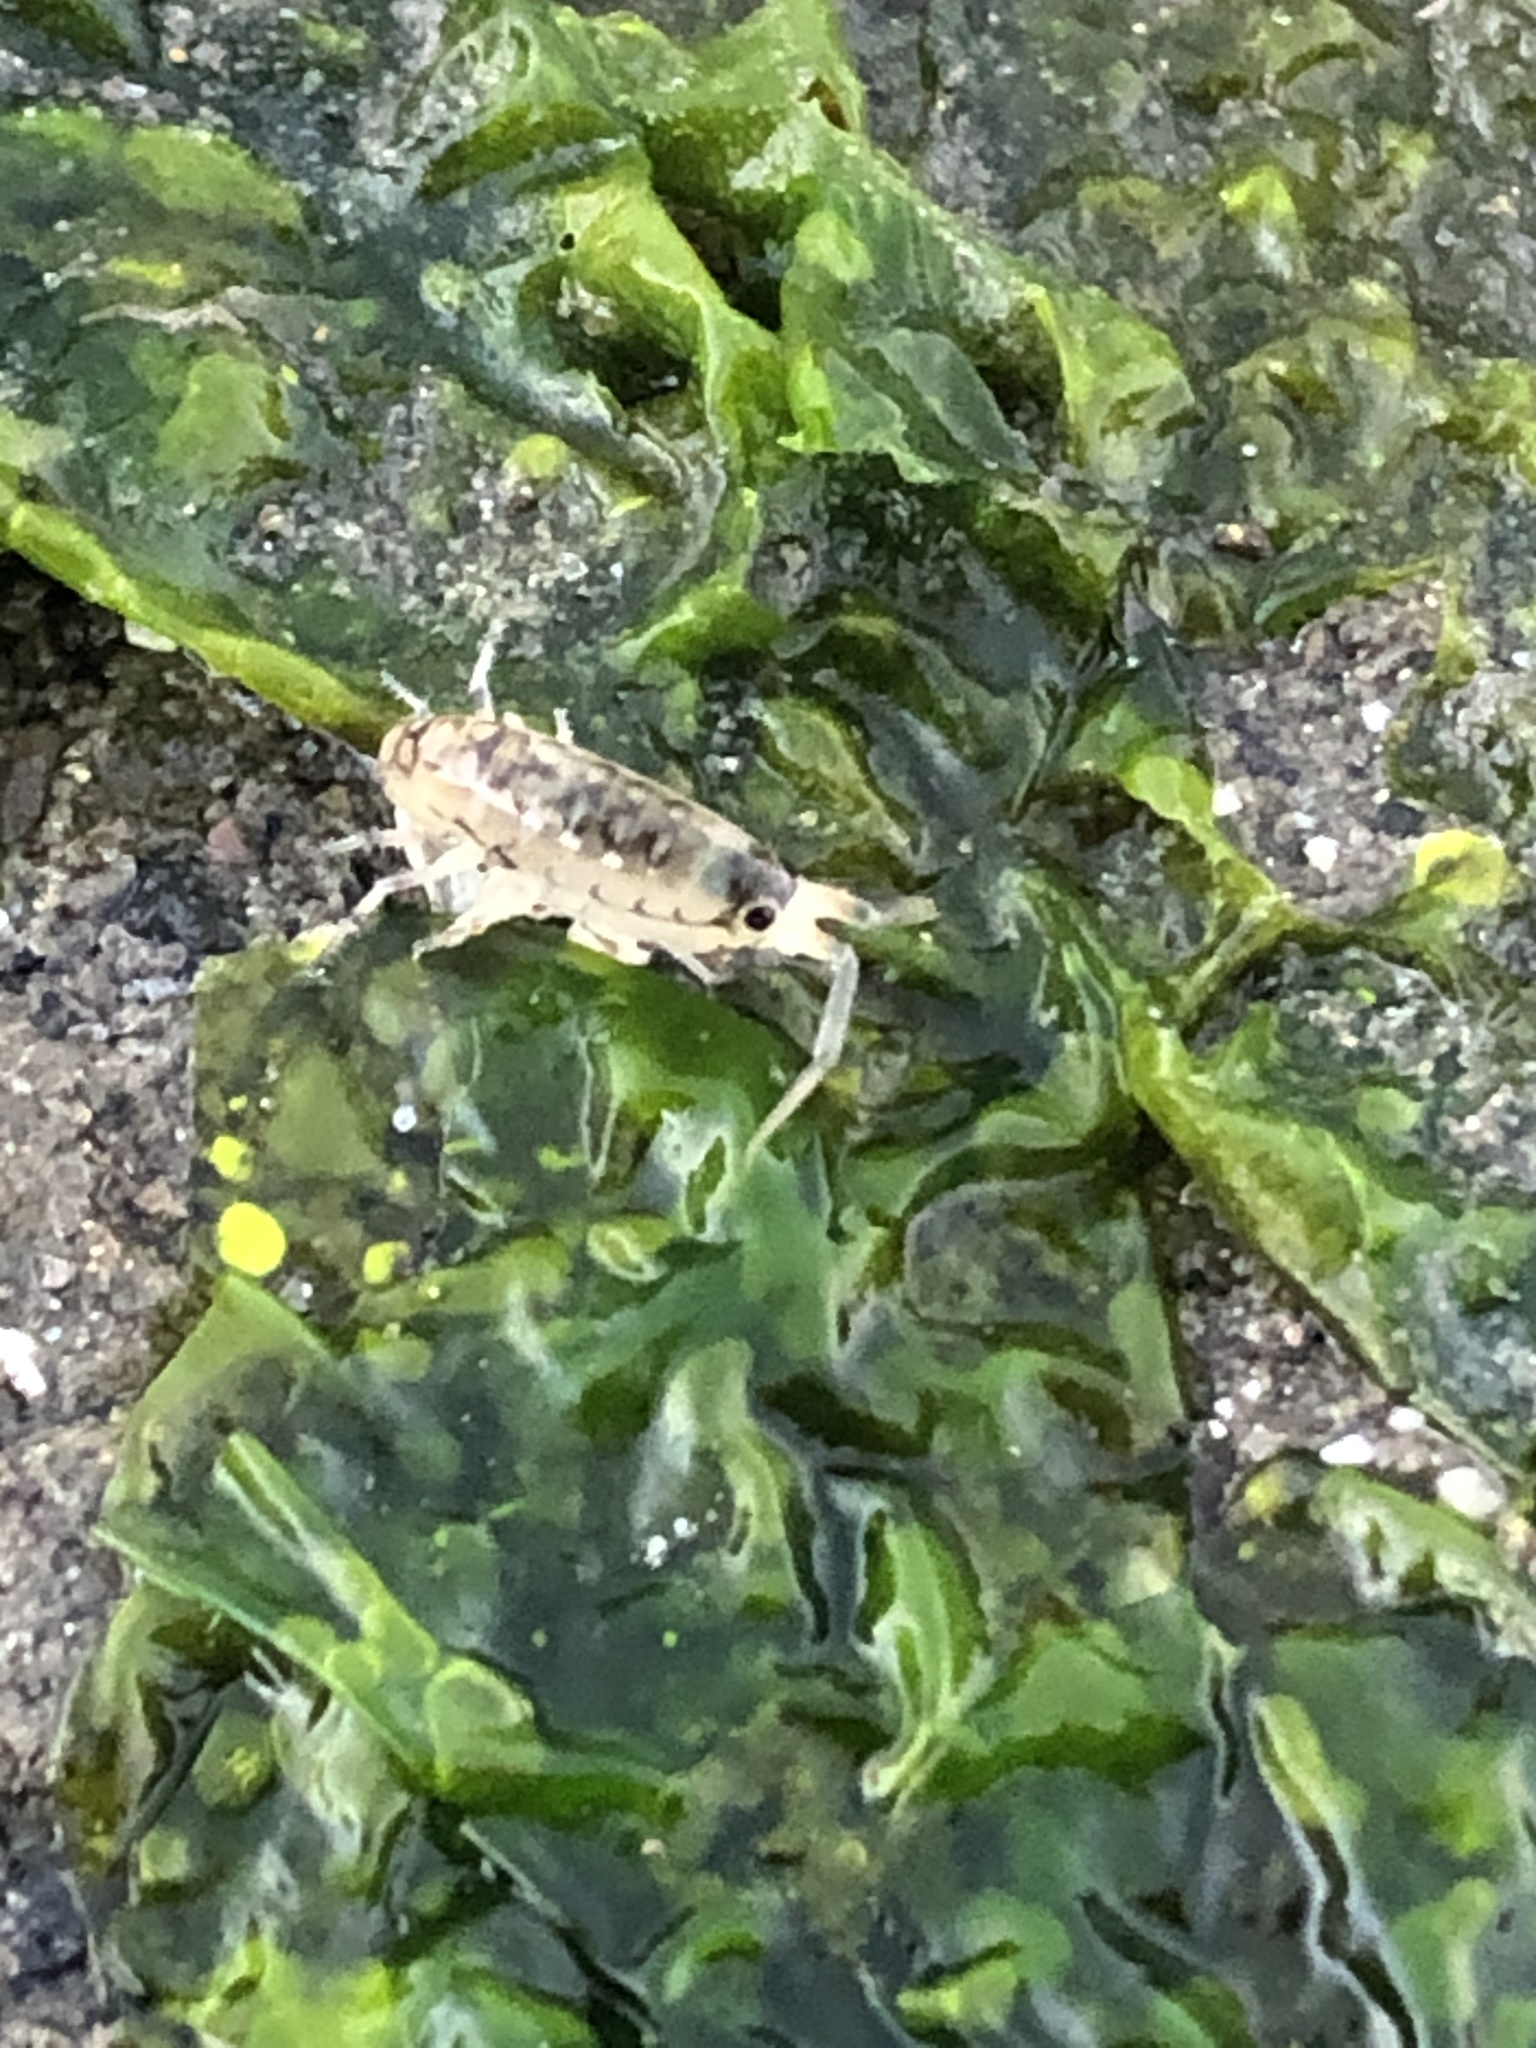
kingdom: Animalia
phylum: Arthropoda
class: Malacostraca
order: Amphipoda
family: Talitridae
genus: Megalorchestia
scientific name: Megalorchestia pugettensis
